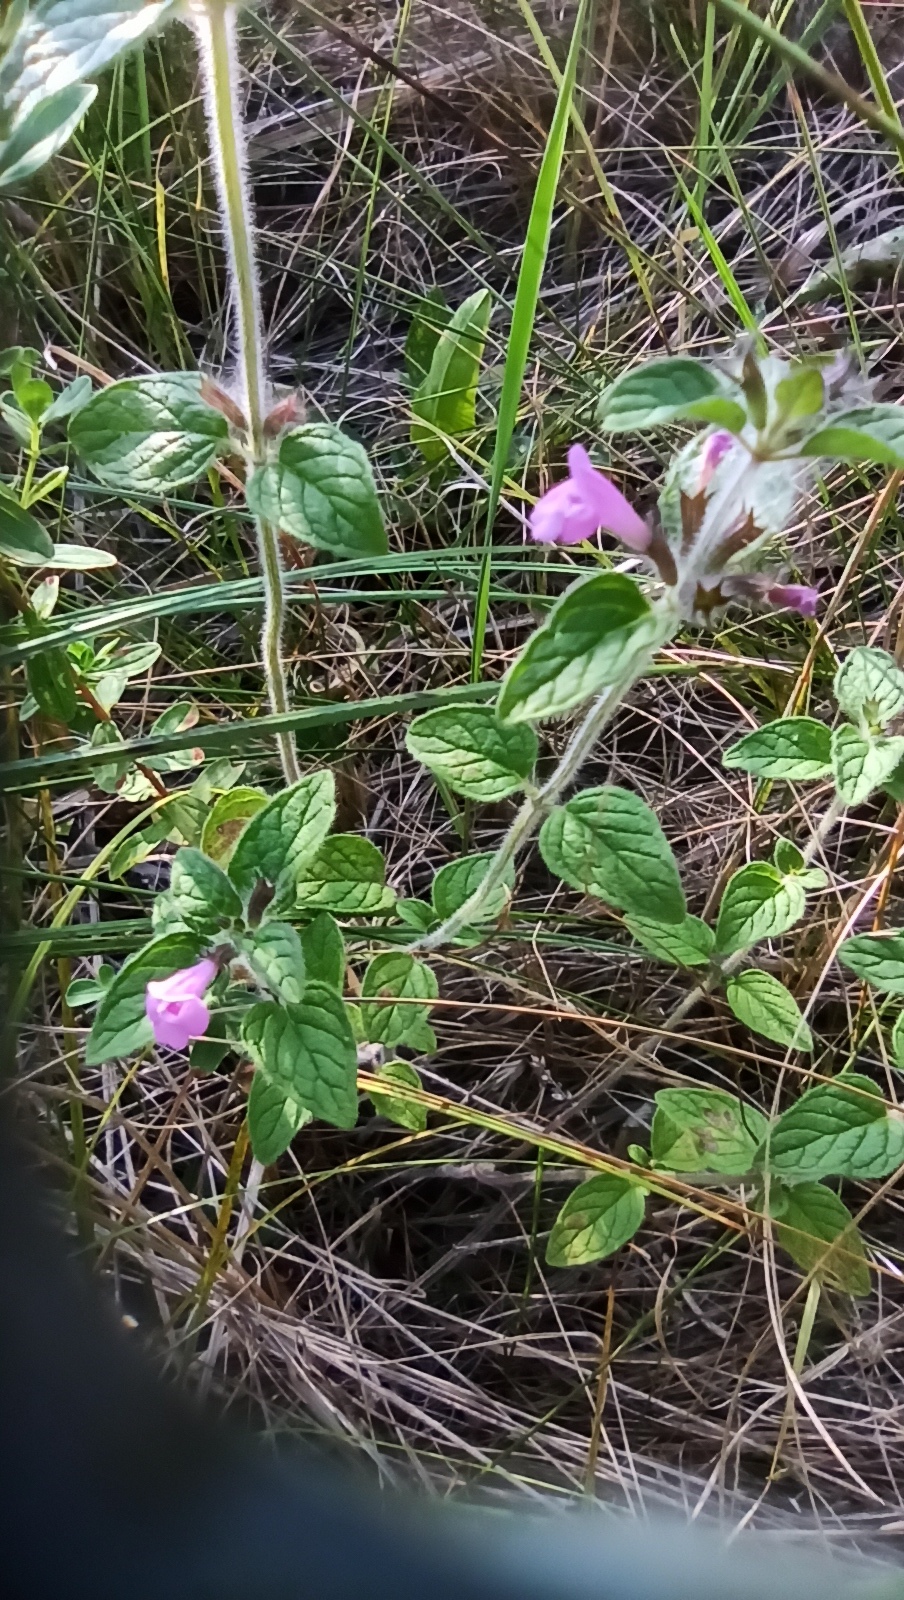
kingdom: Plantae
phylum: Tracheophyta
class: Magnoliopsida
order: Lamiales
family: Lamiaceae
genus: Clinopodium
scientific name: Clinopodium vulgare
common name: Wild basil
